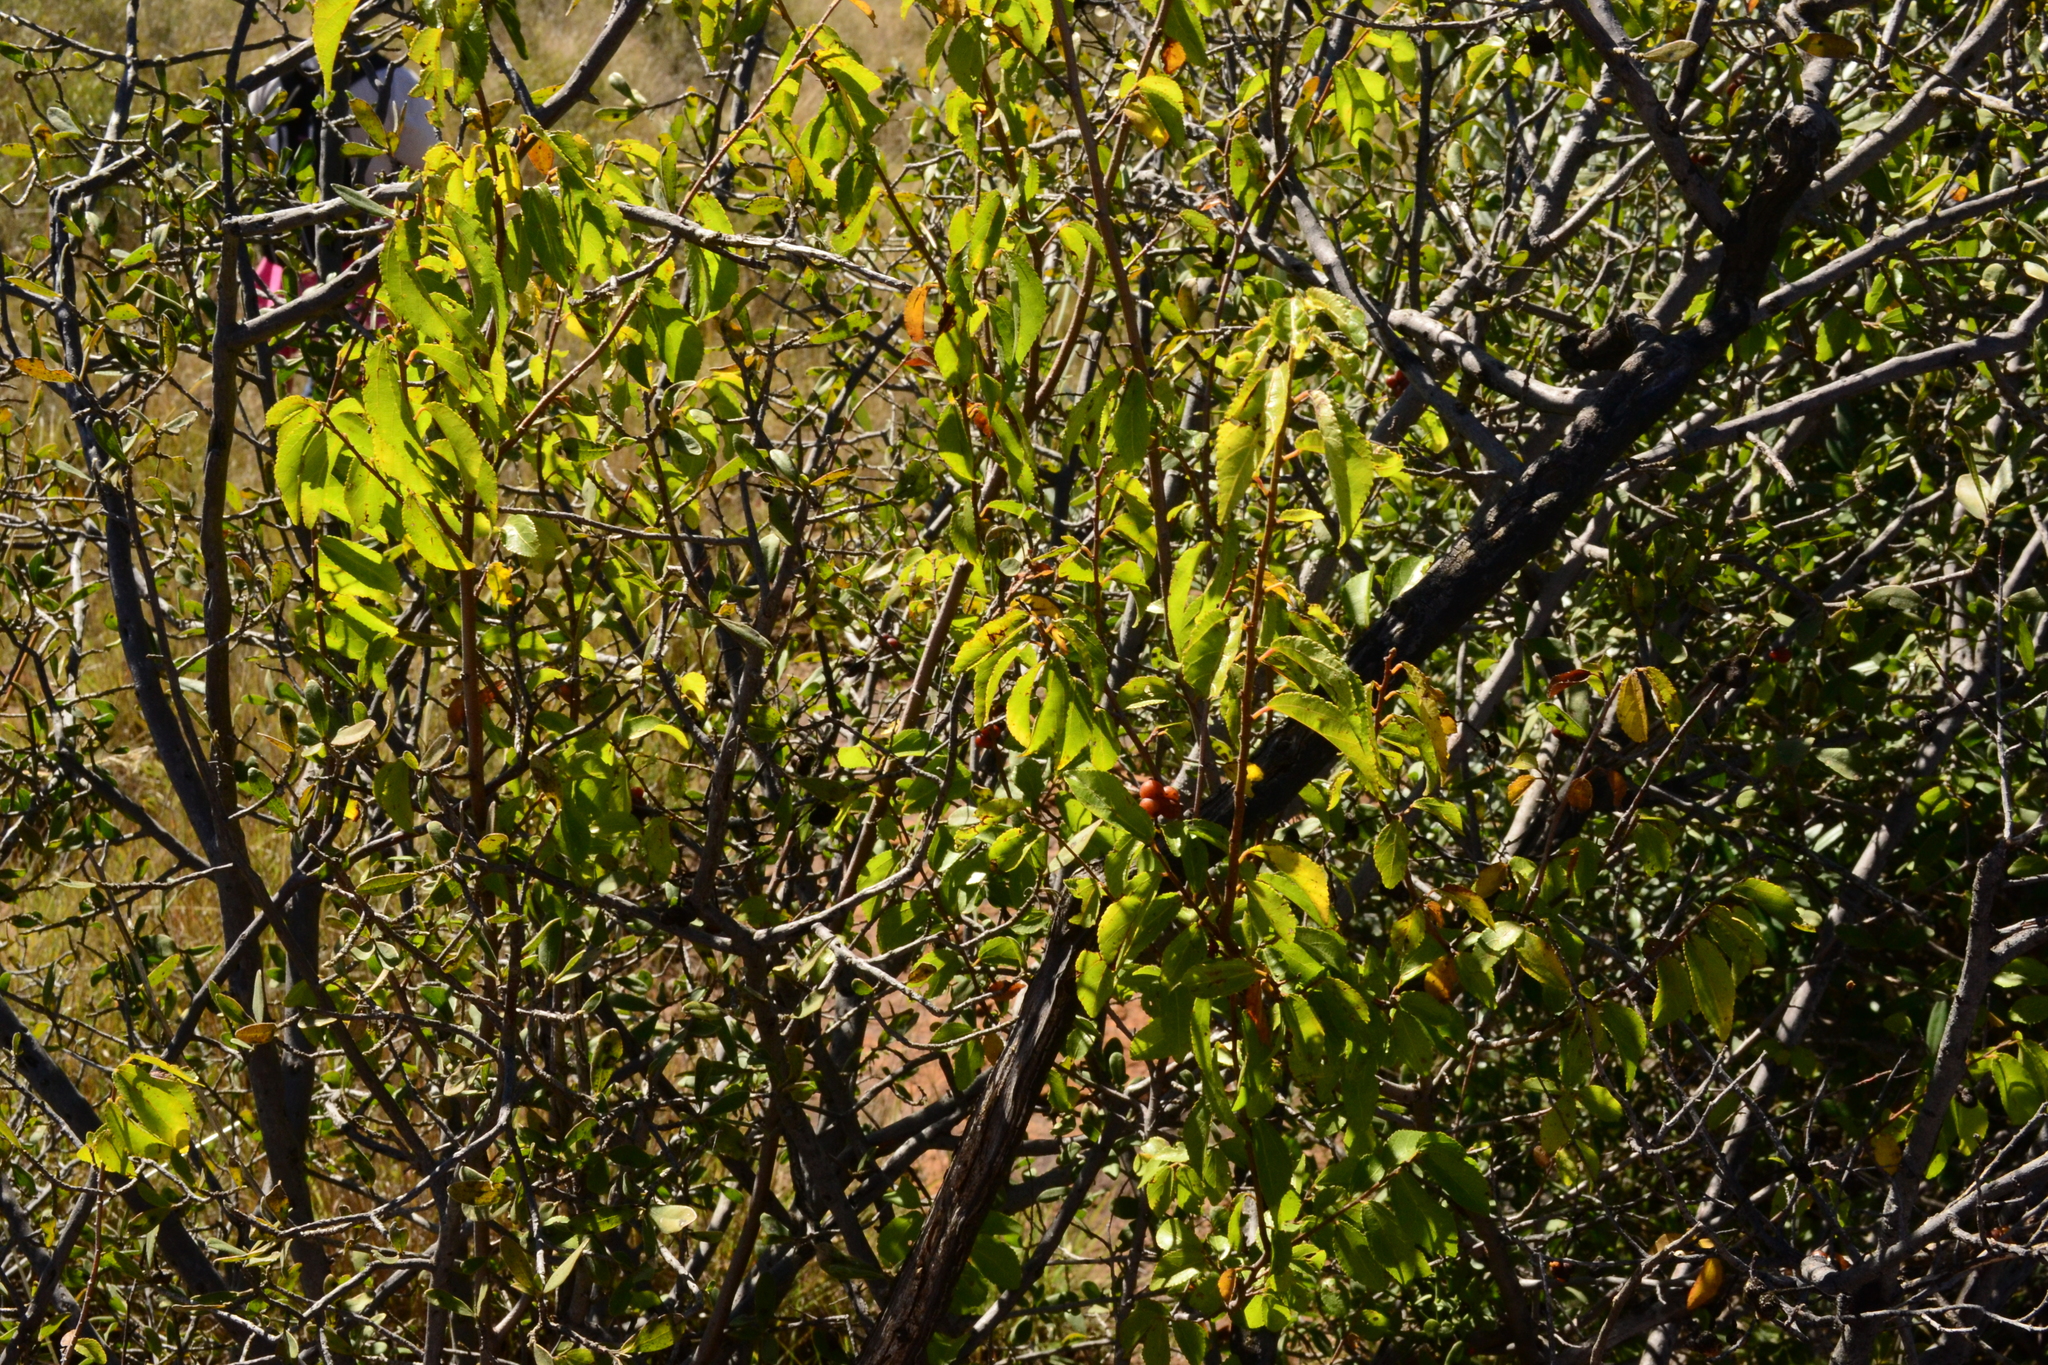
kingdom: Plantae
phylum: Tracheophyta
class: Magnoliopsida
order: Malvales
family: Malvaceae
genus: Grewia
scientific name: Grewia occidentalis
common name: Crossberry
